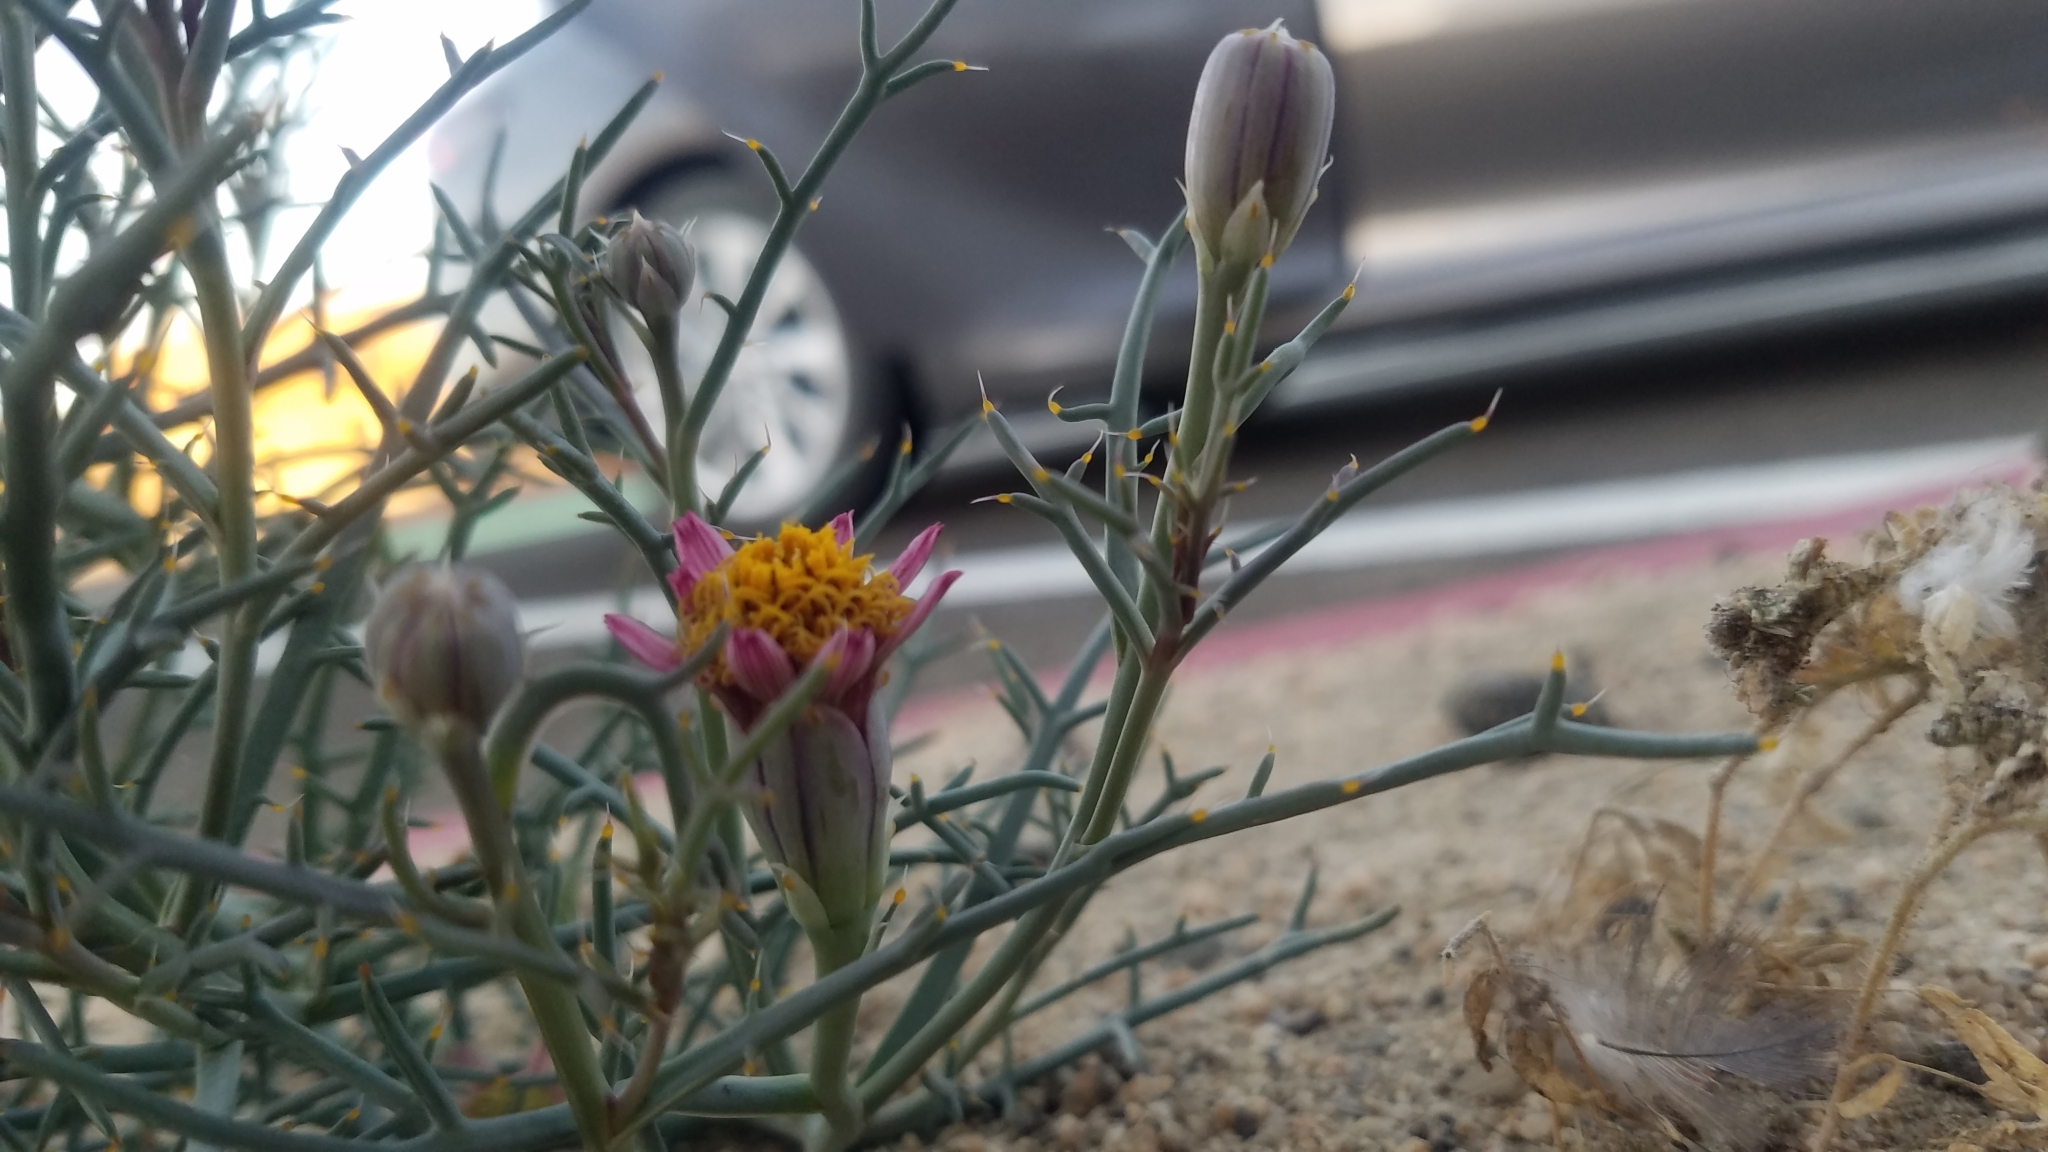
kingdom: Plantae
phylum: Tracheophyta
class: Magnoliopsida
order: Asterales
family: Asteraceae
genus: Nicolletia
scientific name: Nicolletia occidentalis
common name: Hole-in-the-sand-plant
